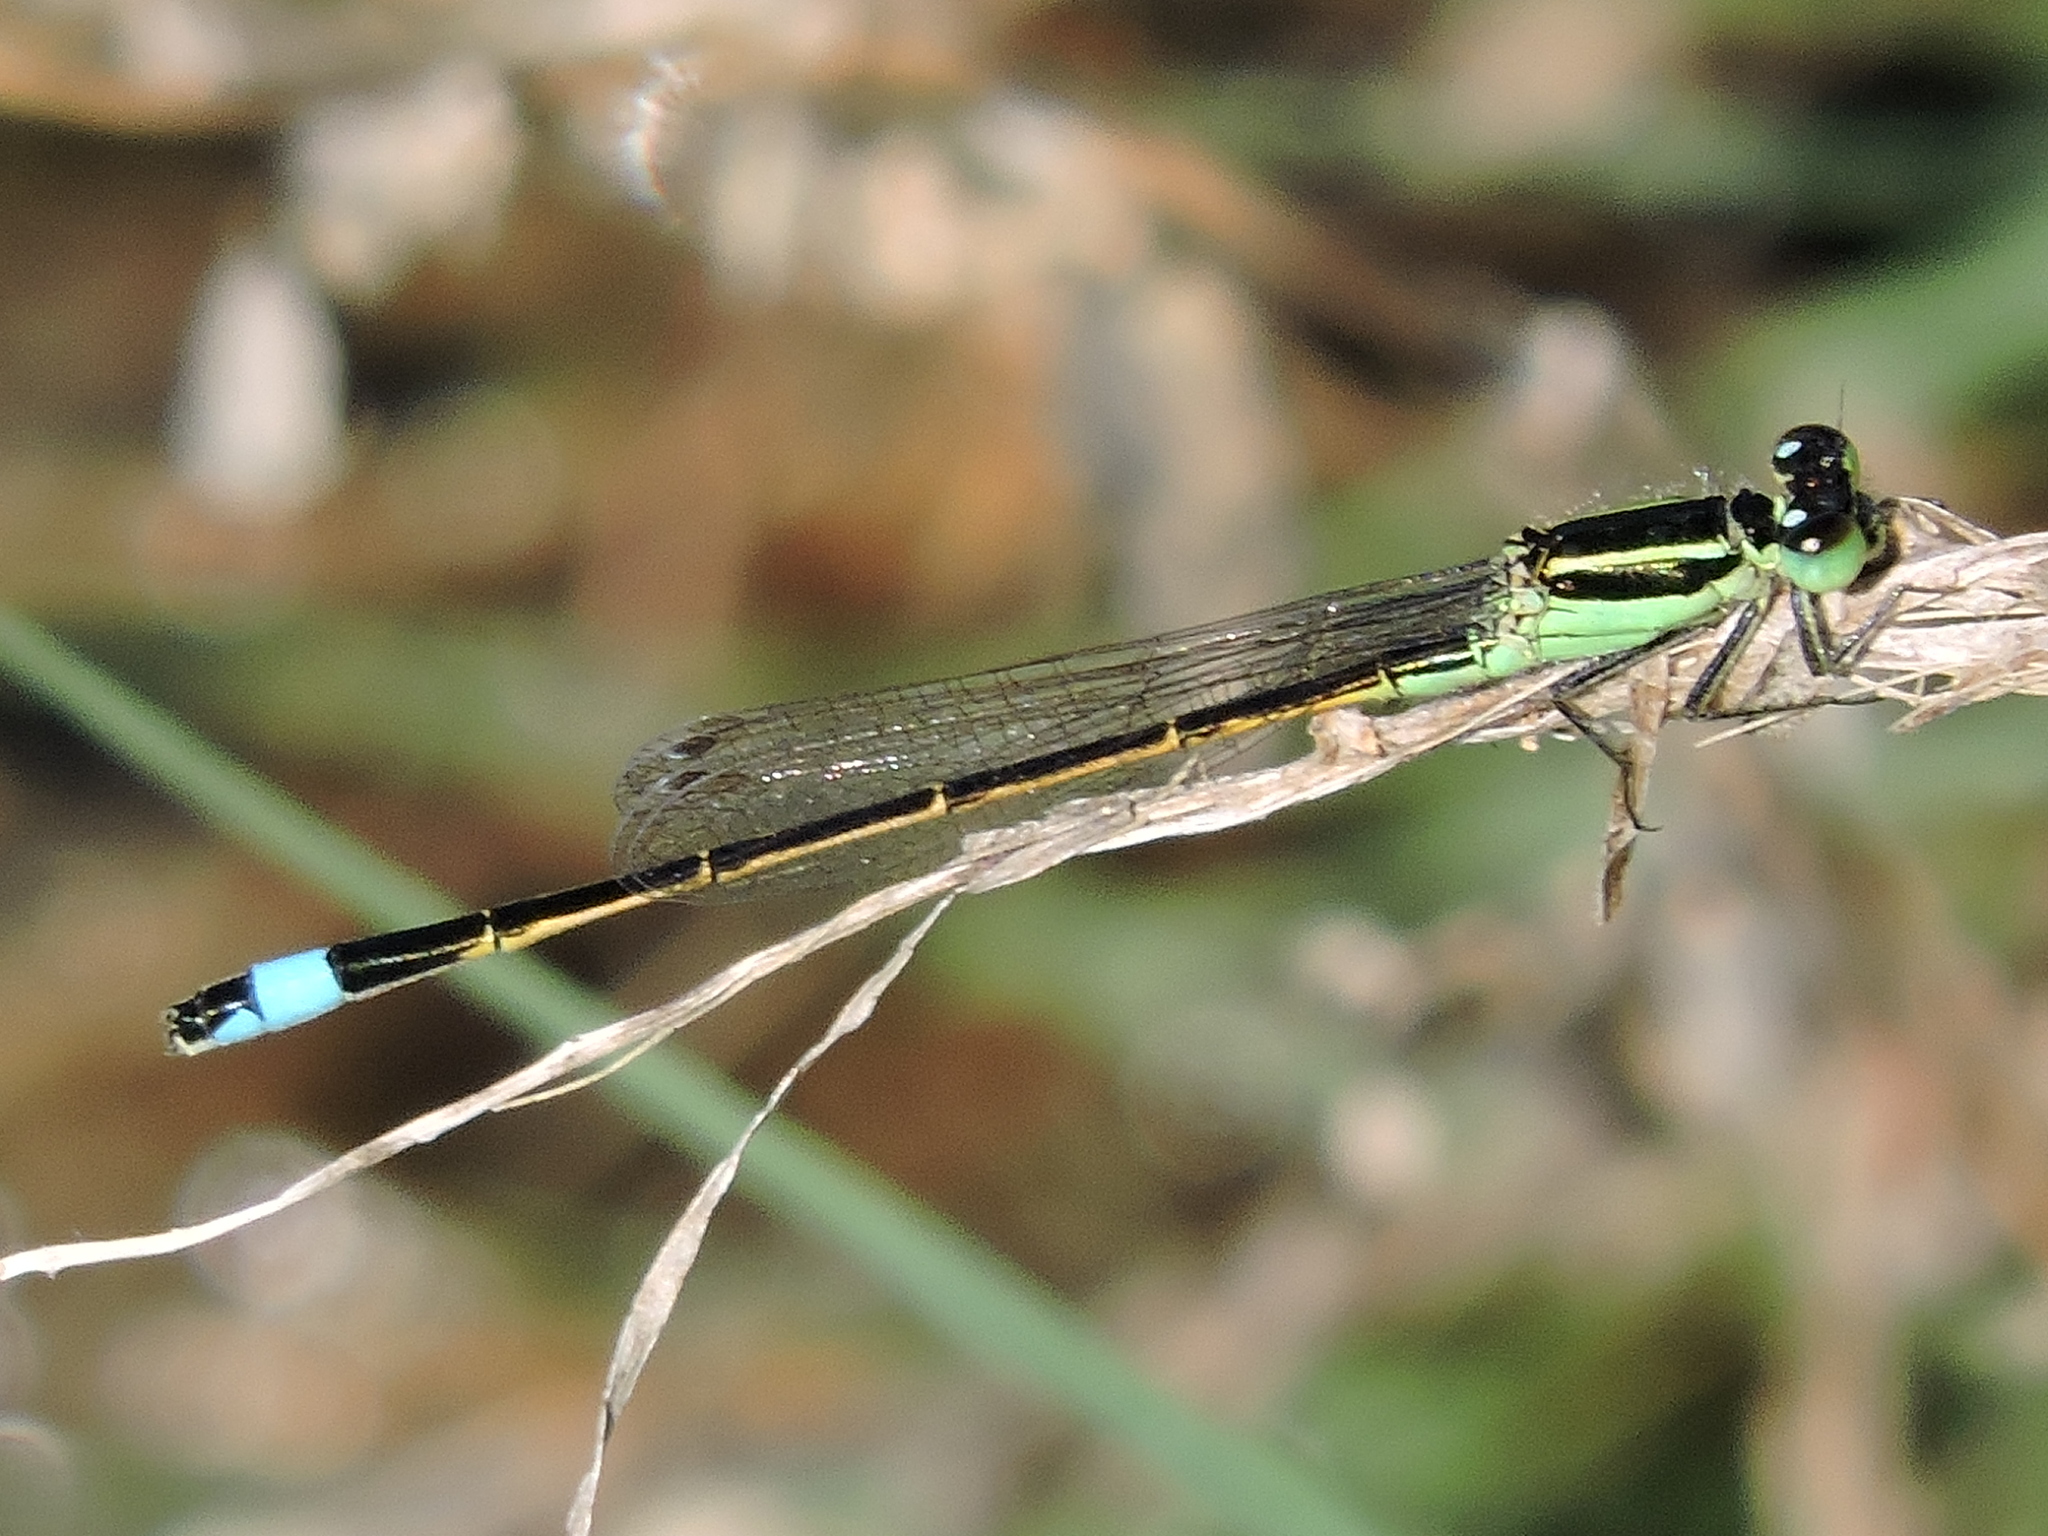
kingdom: Animalia
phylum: Arthropoda
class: Insecta
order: Odonata
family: Coenagrionidae
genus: Ischnura
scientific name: Ischnura ramburii
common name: Rambur's forktail
